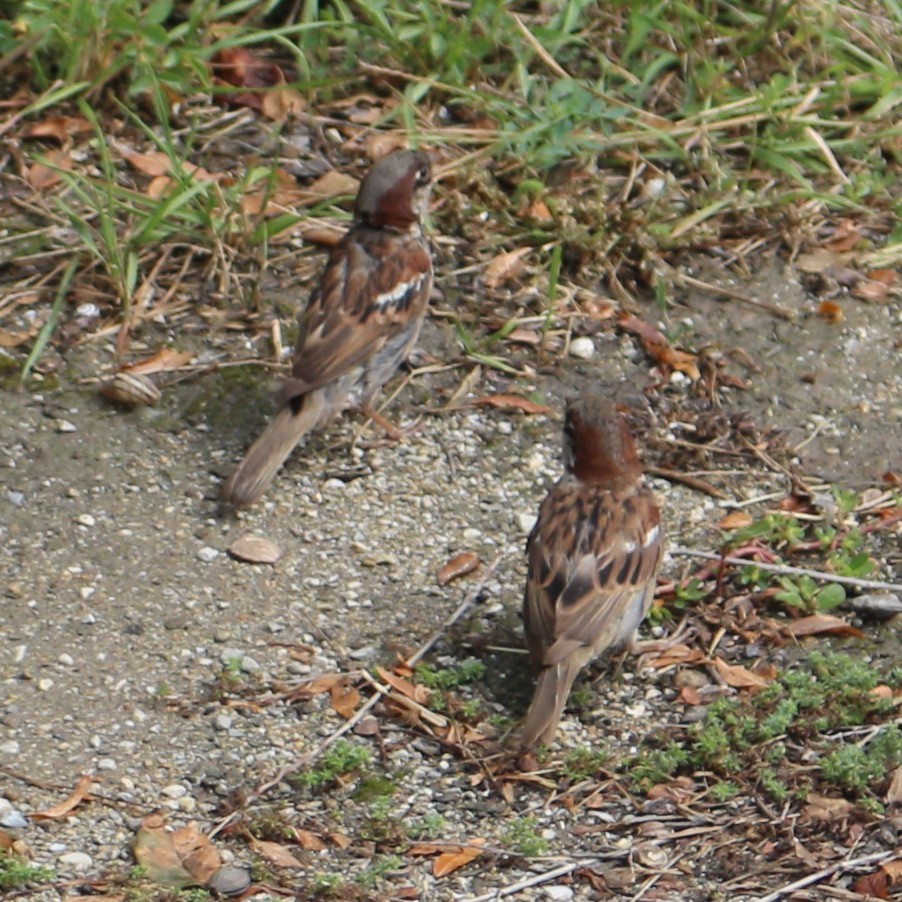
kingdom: Animalia
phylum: Chordata
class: Aves
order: Passeriformes
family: Passeridae
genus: Passer
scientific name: Passer domesticus
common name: House sparrow
